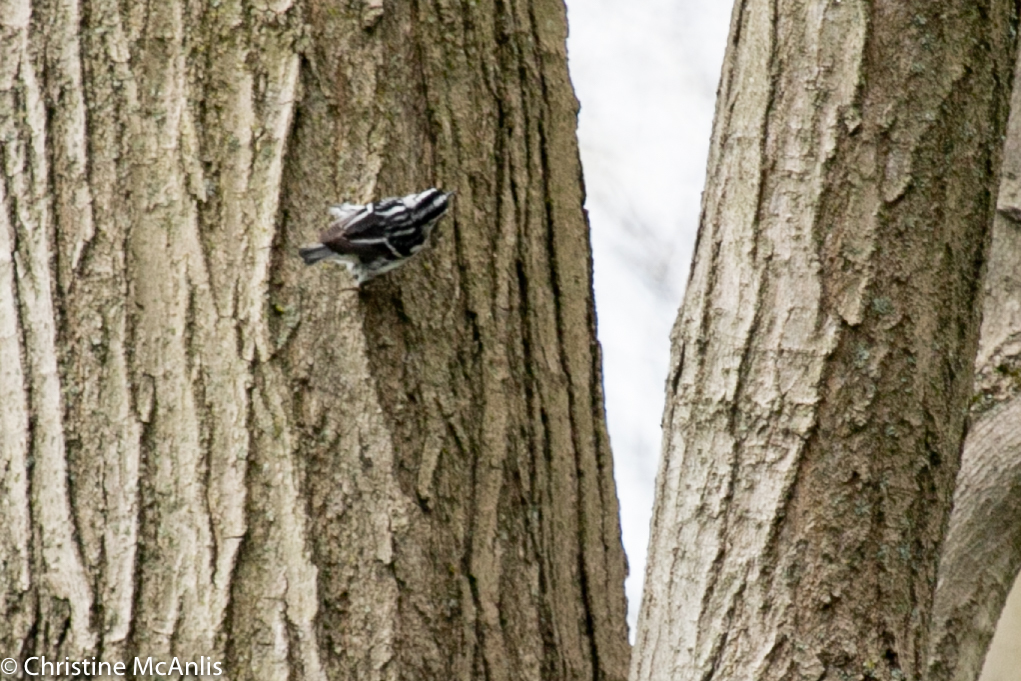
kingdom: Animalia
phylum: Chordata
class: Aves
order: Passeriformes
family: Parulidae
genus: Mniotilta
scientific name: Mniotilta varia
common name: Black-and-white warbler
